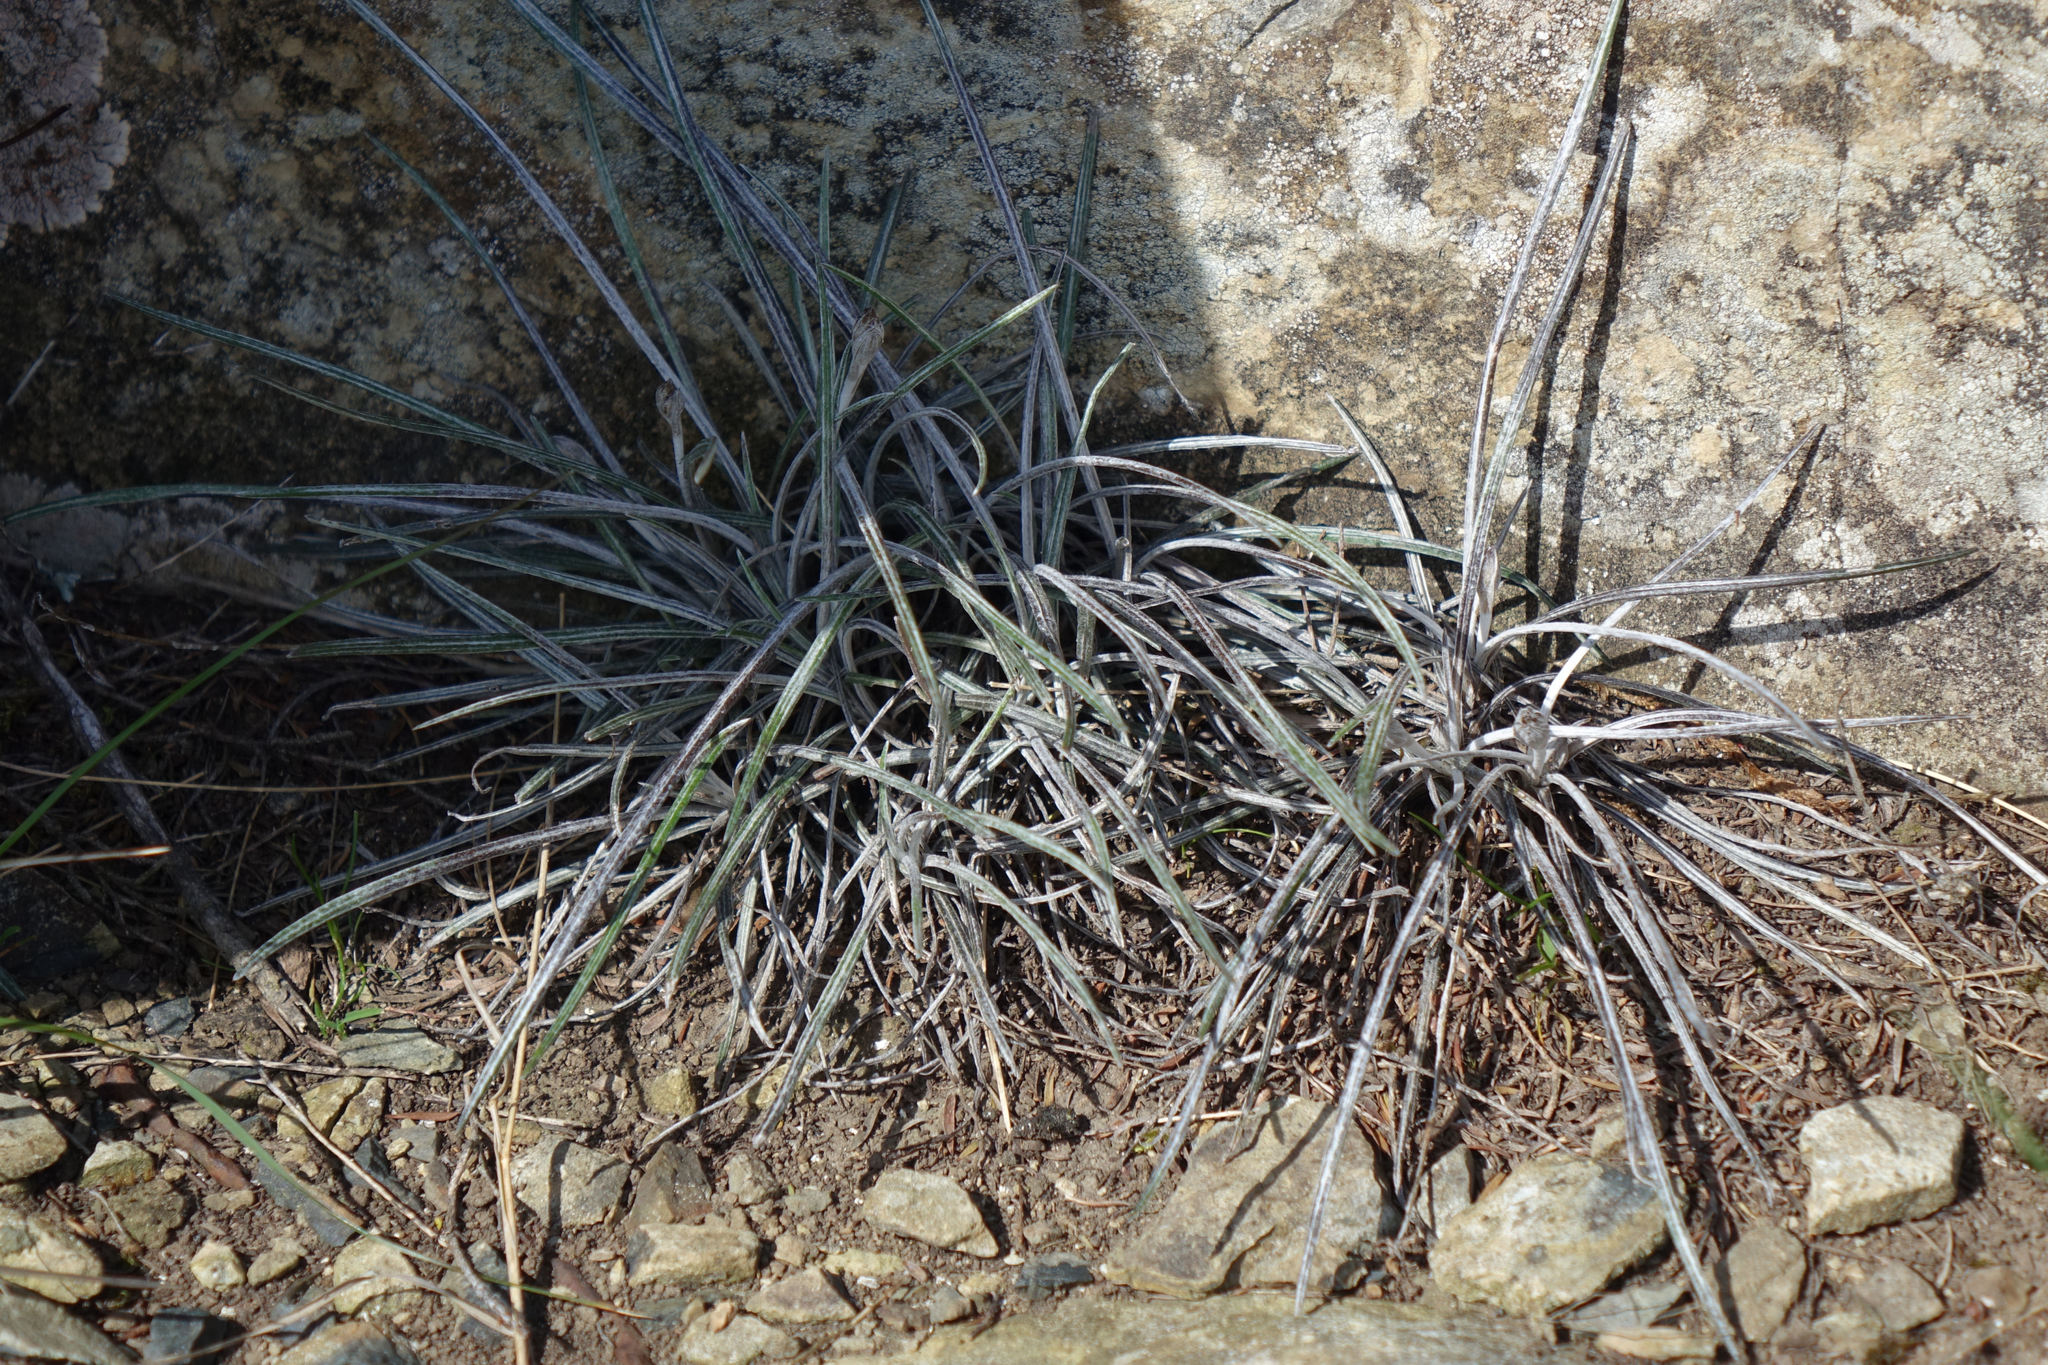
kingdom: Plantae
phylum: Tracheophyta
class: Magnoliopsida
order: Asterales
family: Asteraceae
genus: Celmisia
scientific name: Celmisia gracilenta
